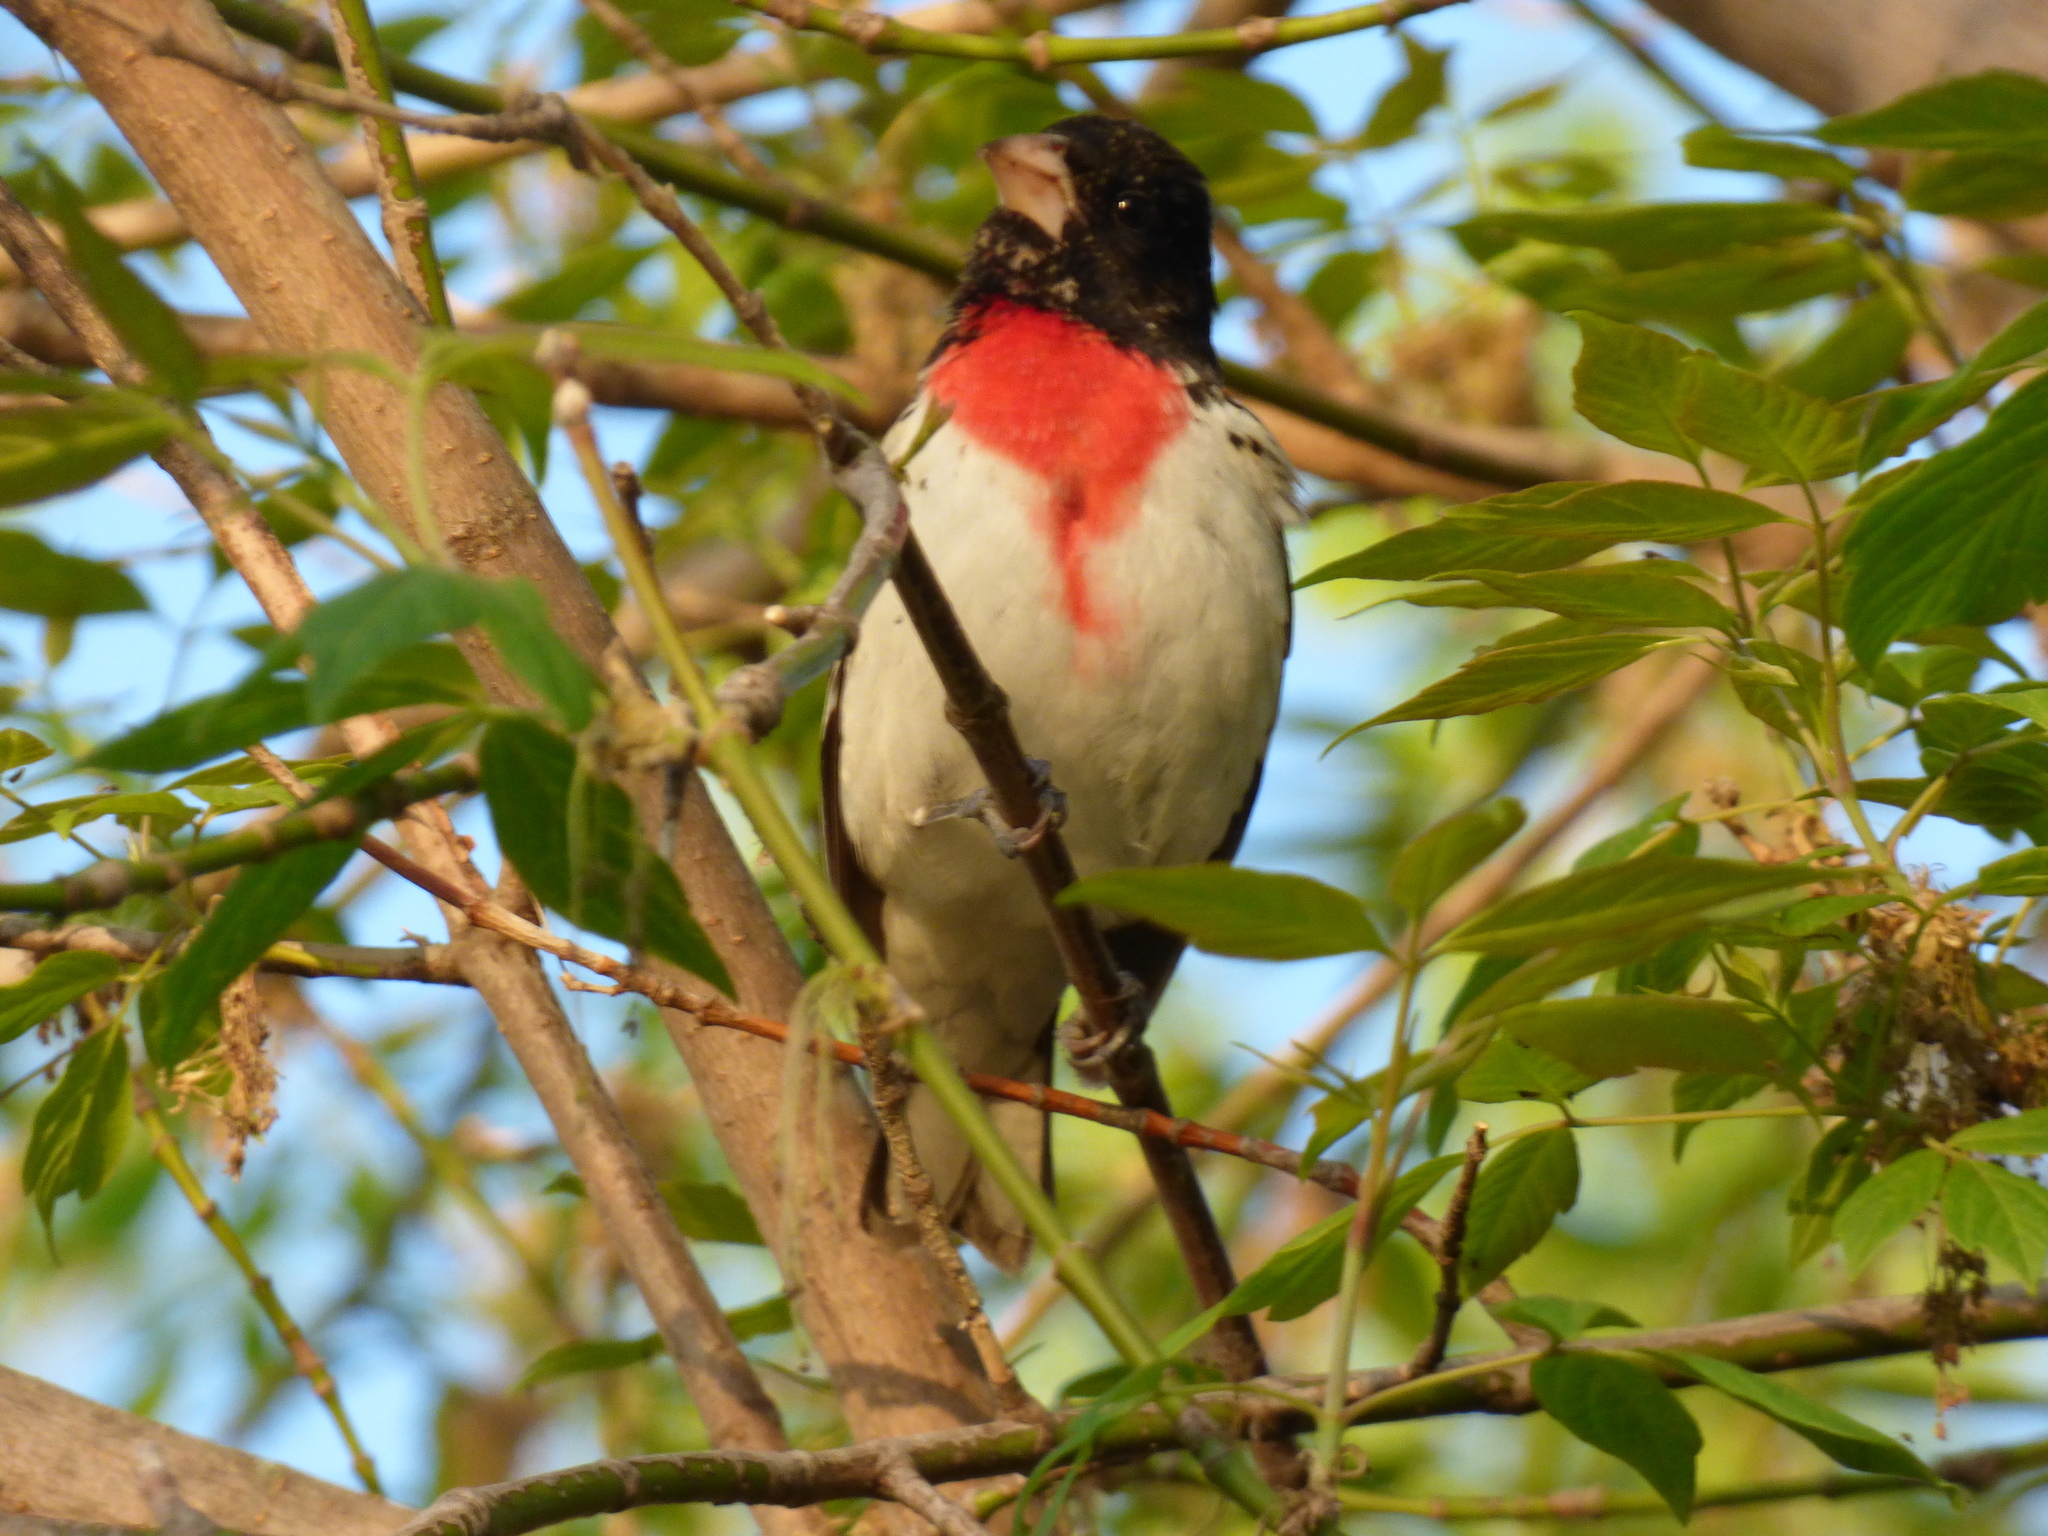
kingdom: Animalia
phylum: Chordata
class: Aves
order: Passeriformes
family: Cardinalidae
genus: Pheucticus
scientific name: Pheucticus ludovicianus
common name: Rose-breasted grosbeak
